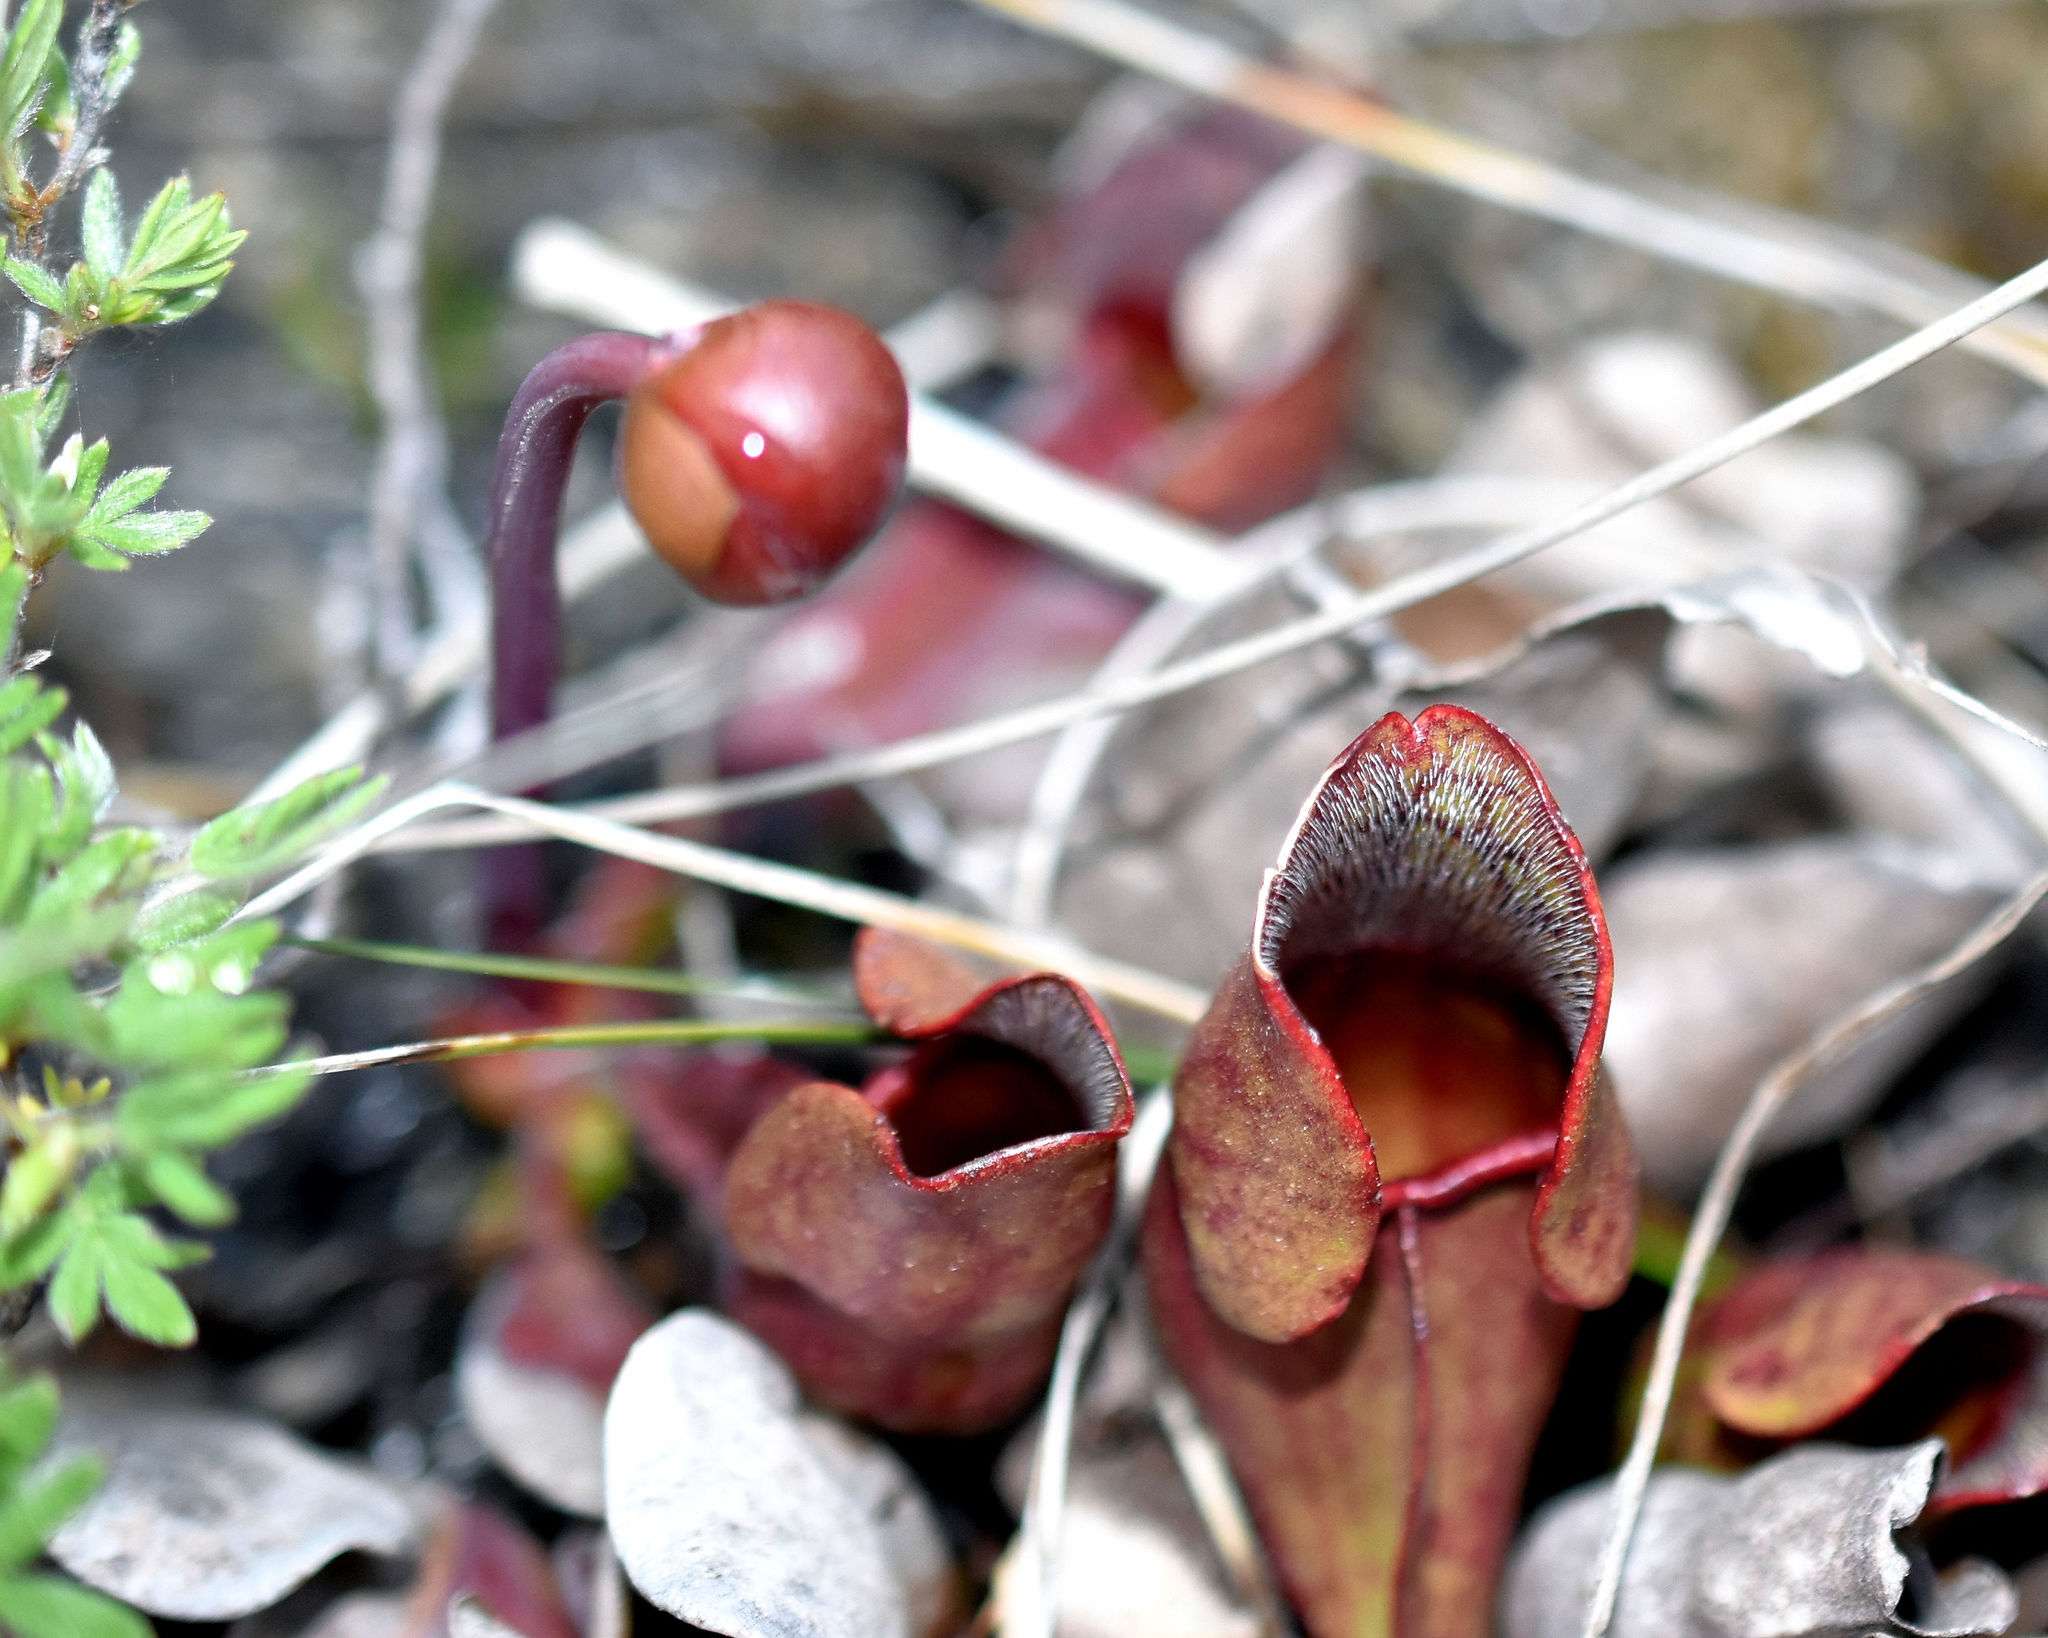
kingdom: Plantae
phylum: Tracheophyta
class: Magnoliopsida
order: Ericales
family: Sarraceniaceae
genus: Sarracenia
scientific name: Sarracenia purpurea
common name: Pitcherplant
